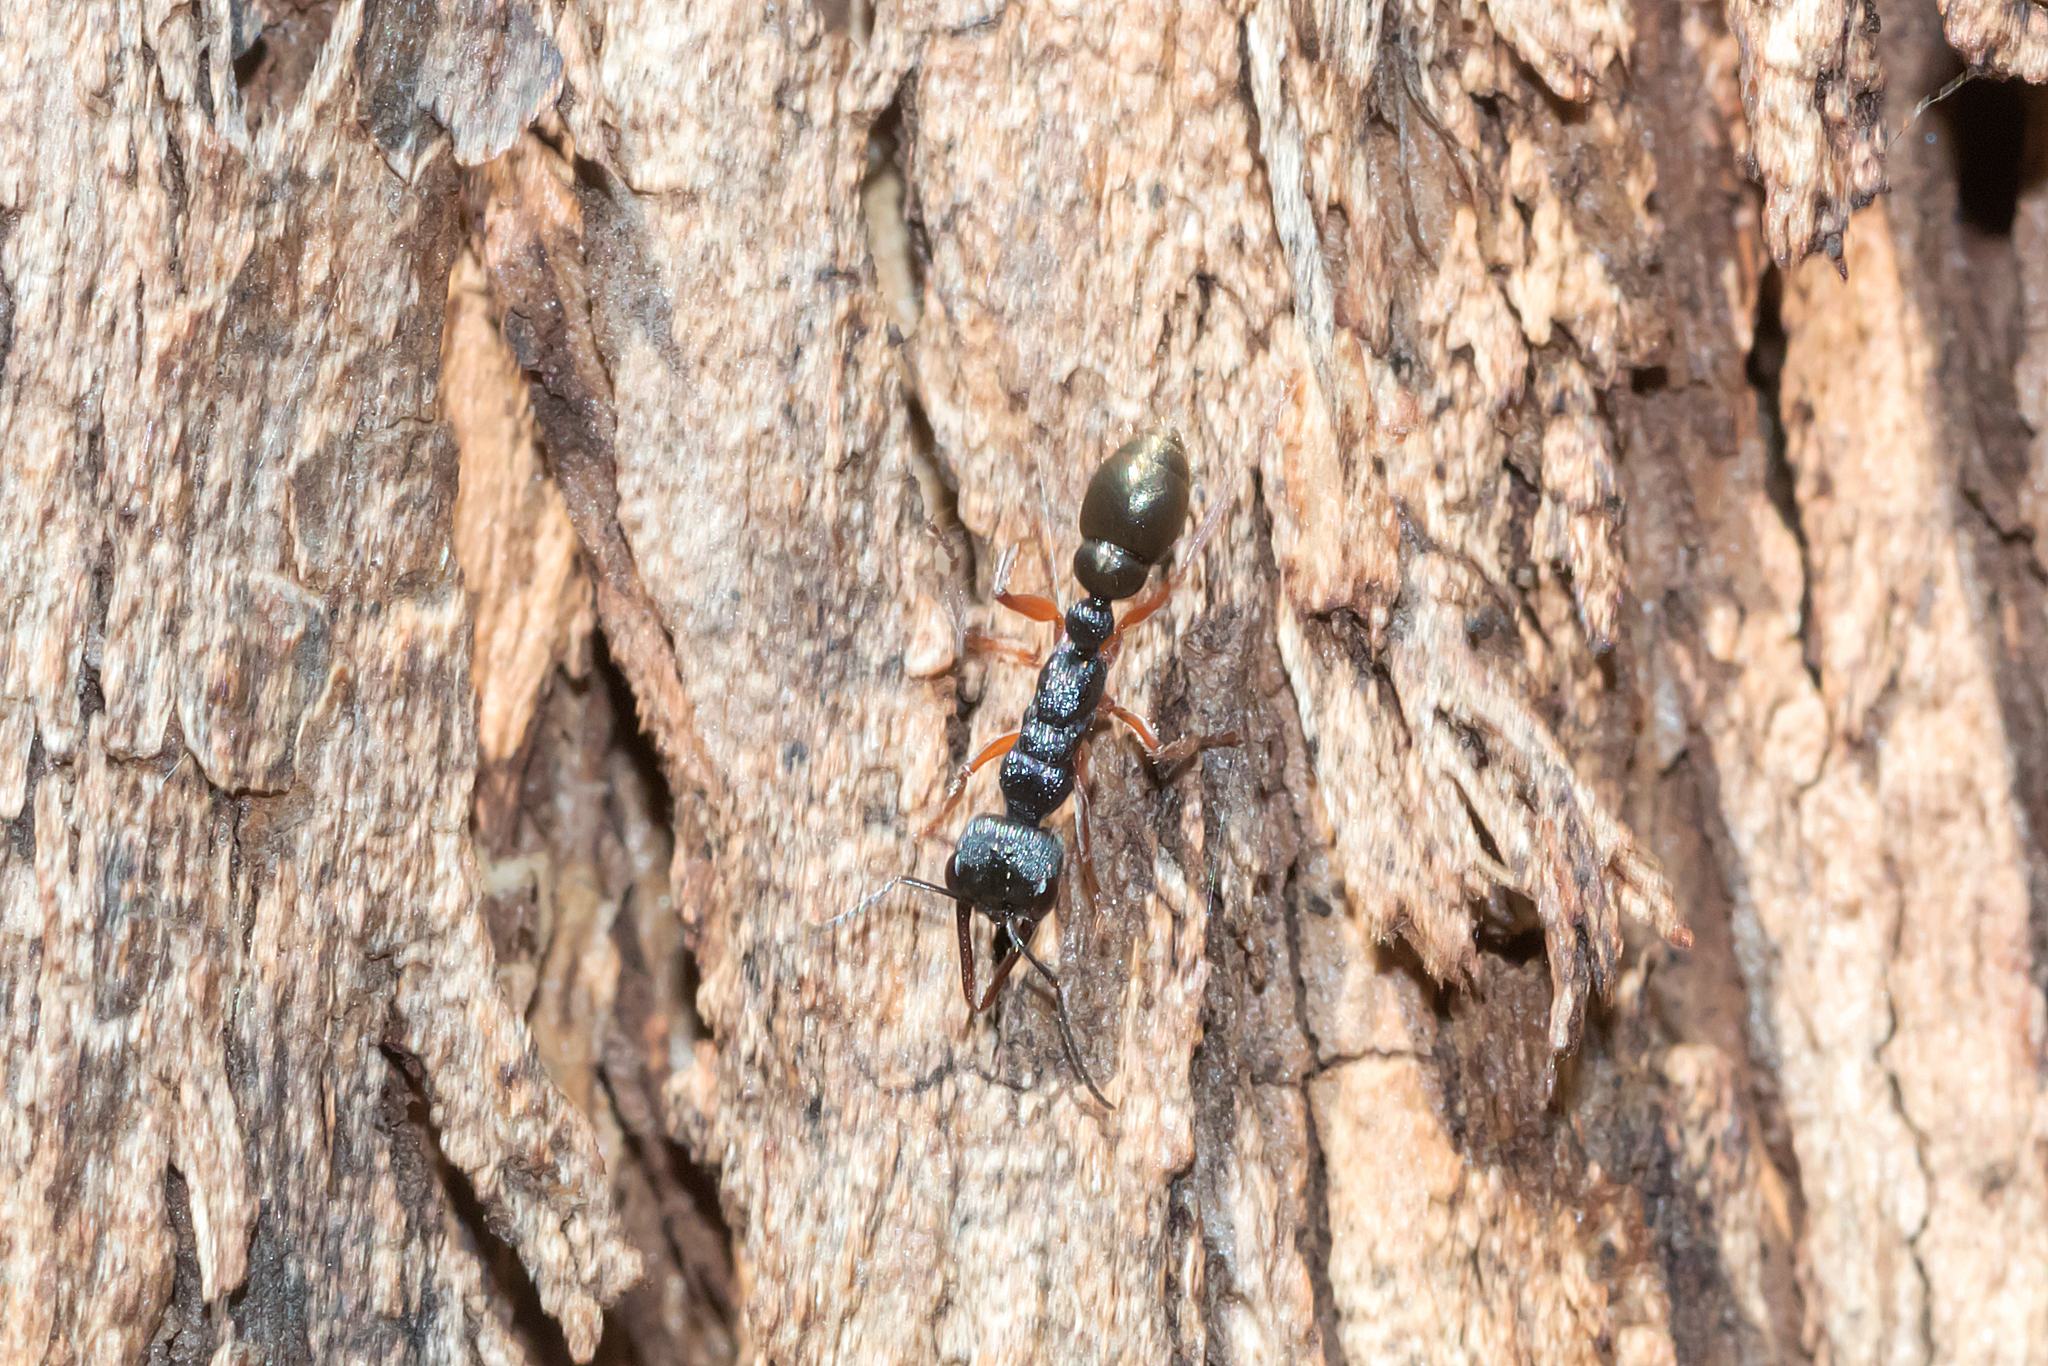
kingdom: Animalia
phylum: Arthropoda
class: Insecta
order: Hymenoptera
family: Formicidae
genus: Myrmecia
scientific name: Myrmecia fulvipes
